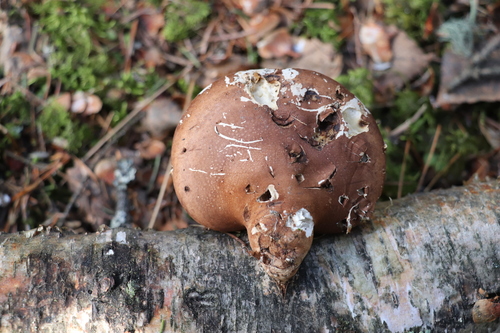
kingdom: Fungi
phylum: Basidiomycota
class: Agaricomycetes
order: Polyporales
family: Fomitopsidaceae
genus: Fomitopsis
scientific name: Fomitopsis betulina
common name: Birch polypore
